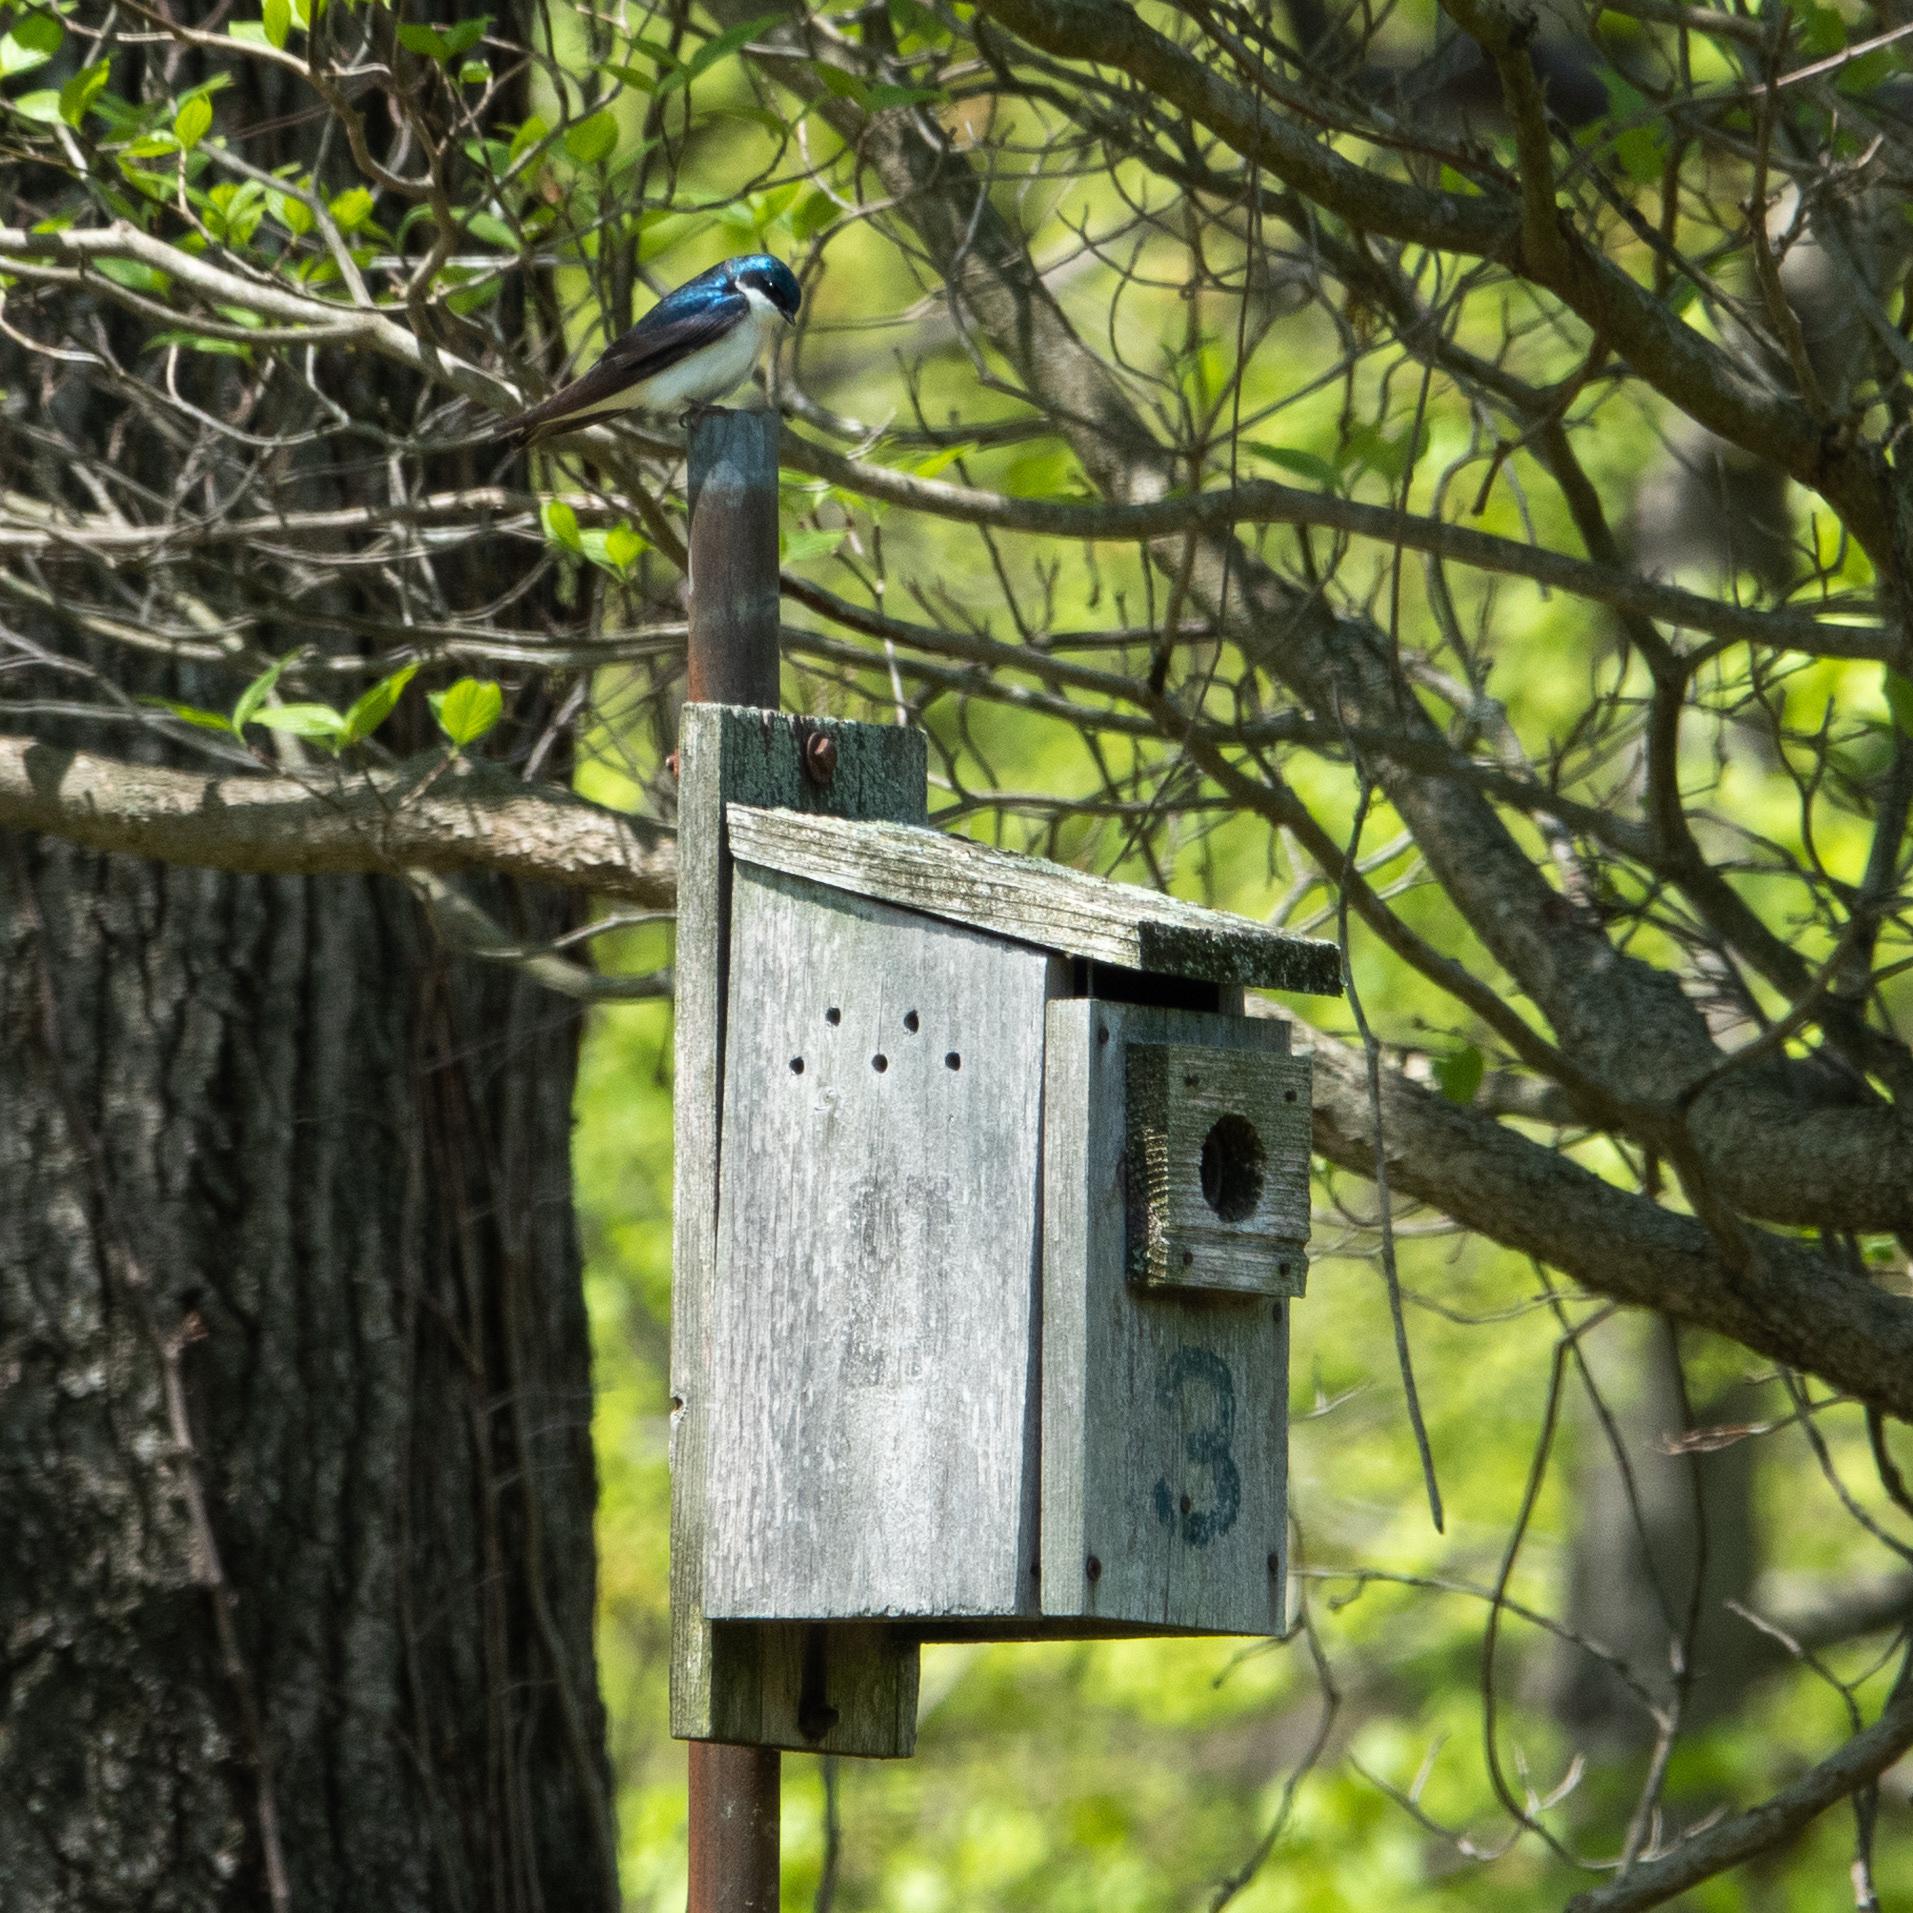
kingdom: Animalia
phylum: Chordata
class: Aves
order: Passeriformes
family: Hirundinidae
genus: Tachycineta
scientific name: Tachycineta bicolor
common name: Tree swallow
